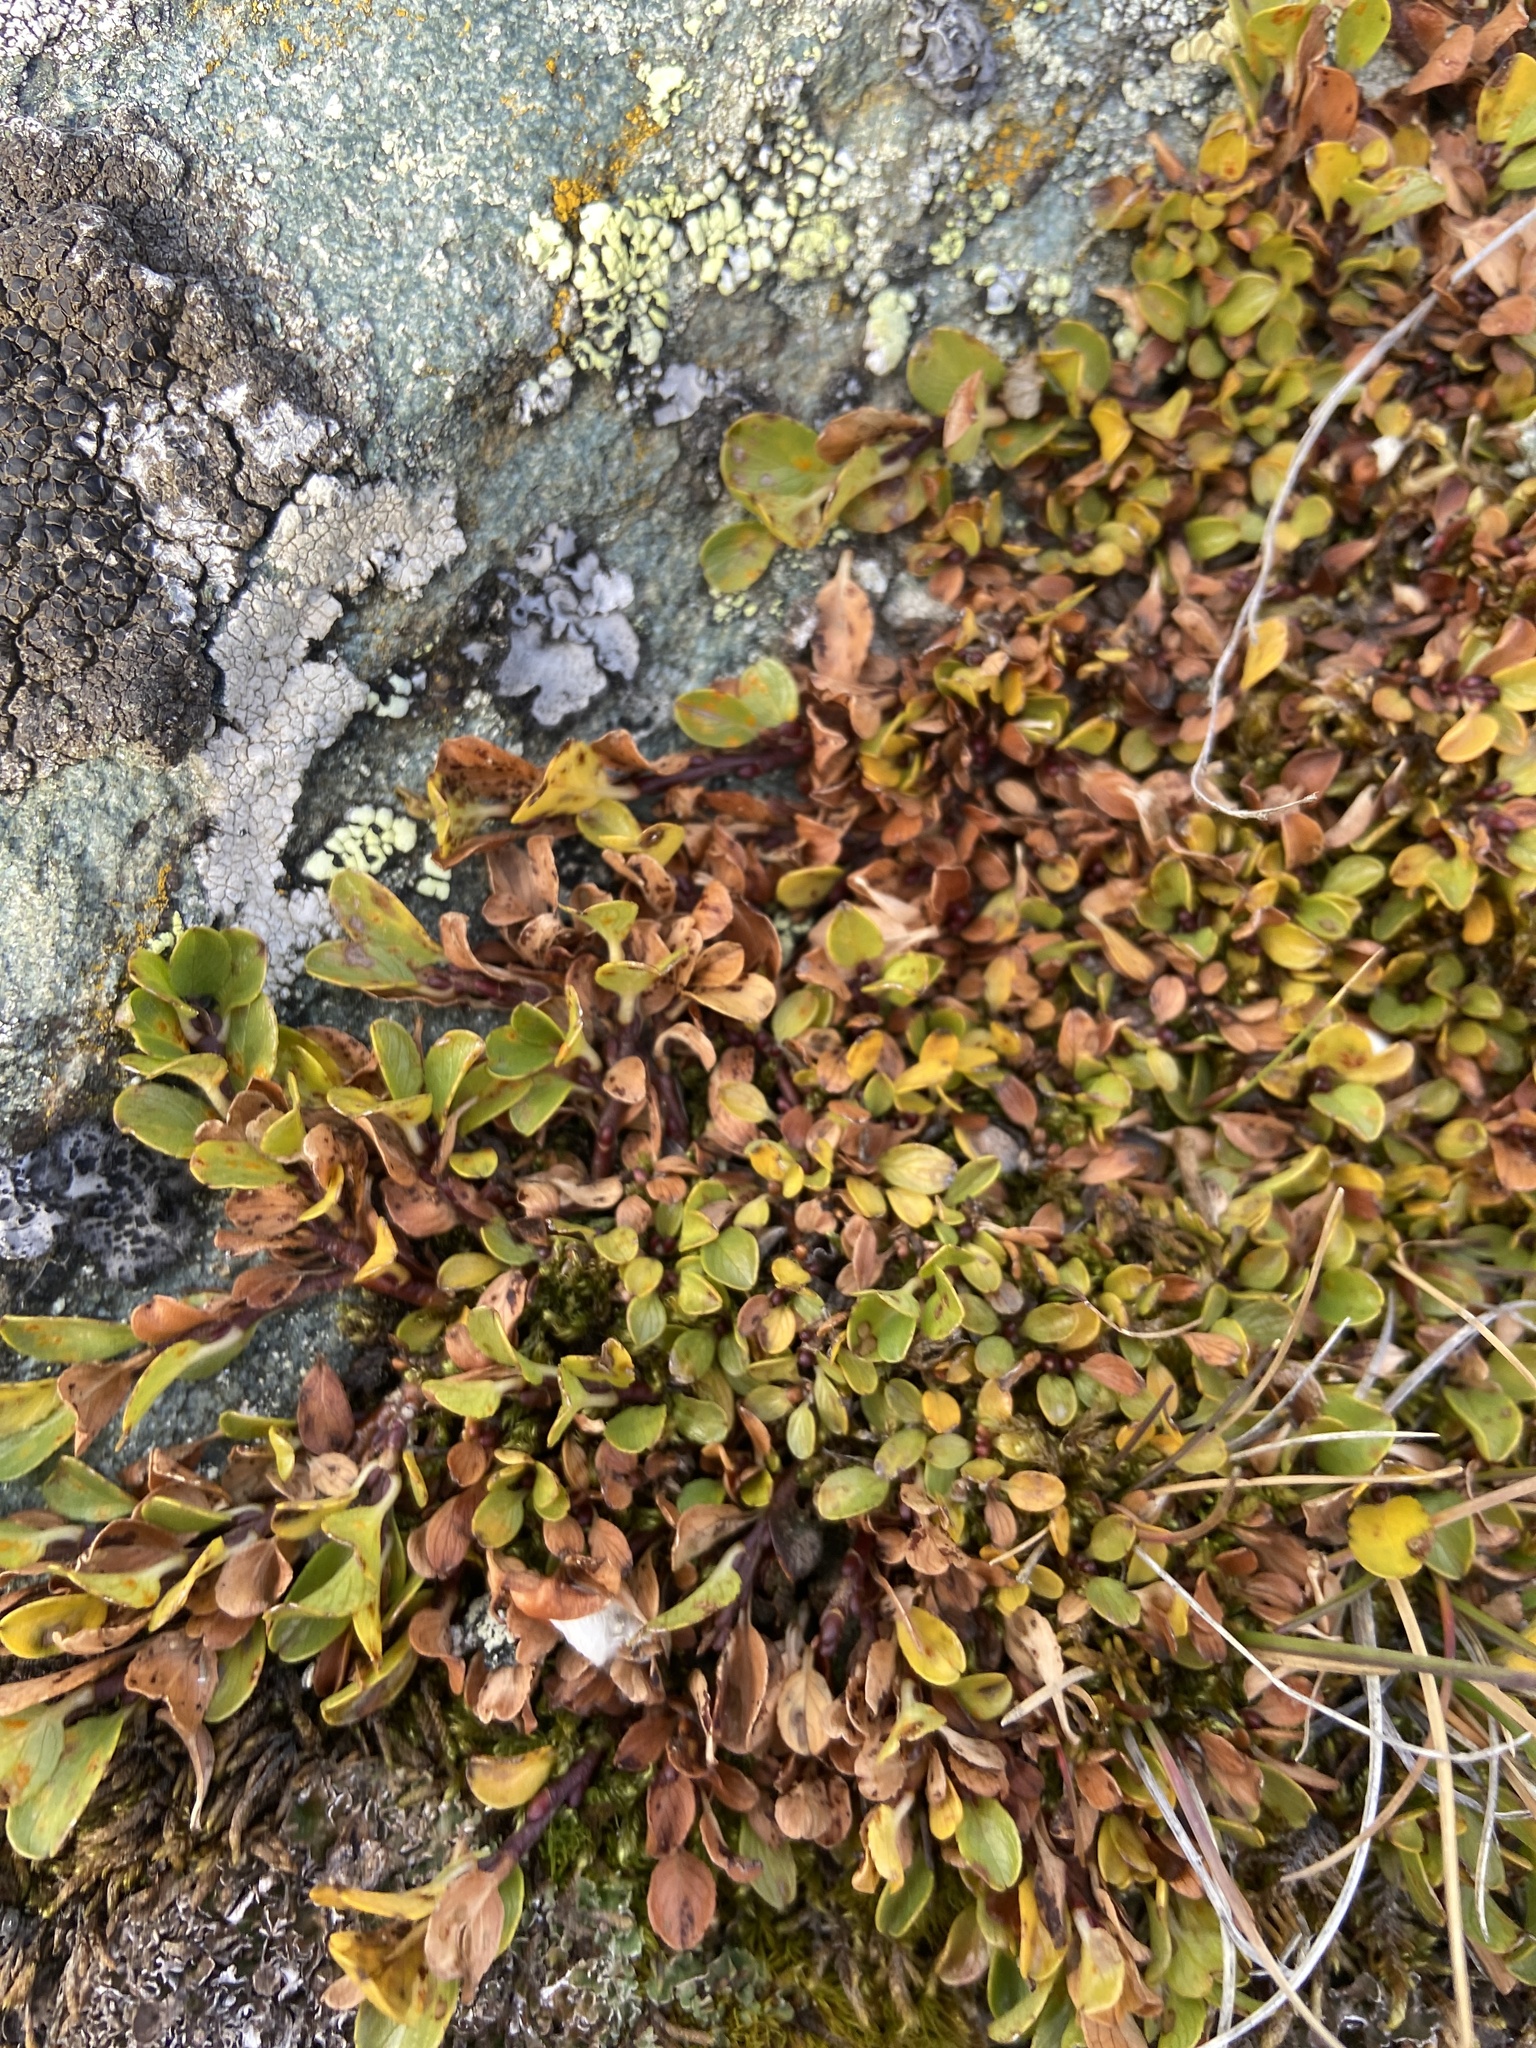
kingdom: Plantae
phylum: Tracheophyta
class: Magnoliopsida
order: Malpighiales
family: Salicaceae
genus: Salix
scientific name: Salix retusa
